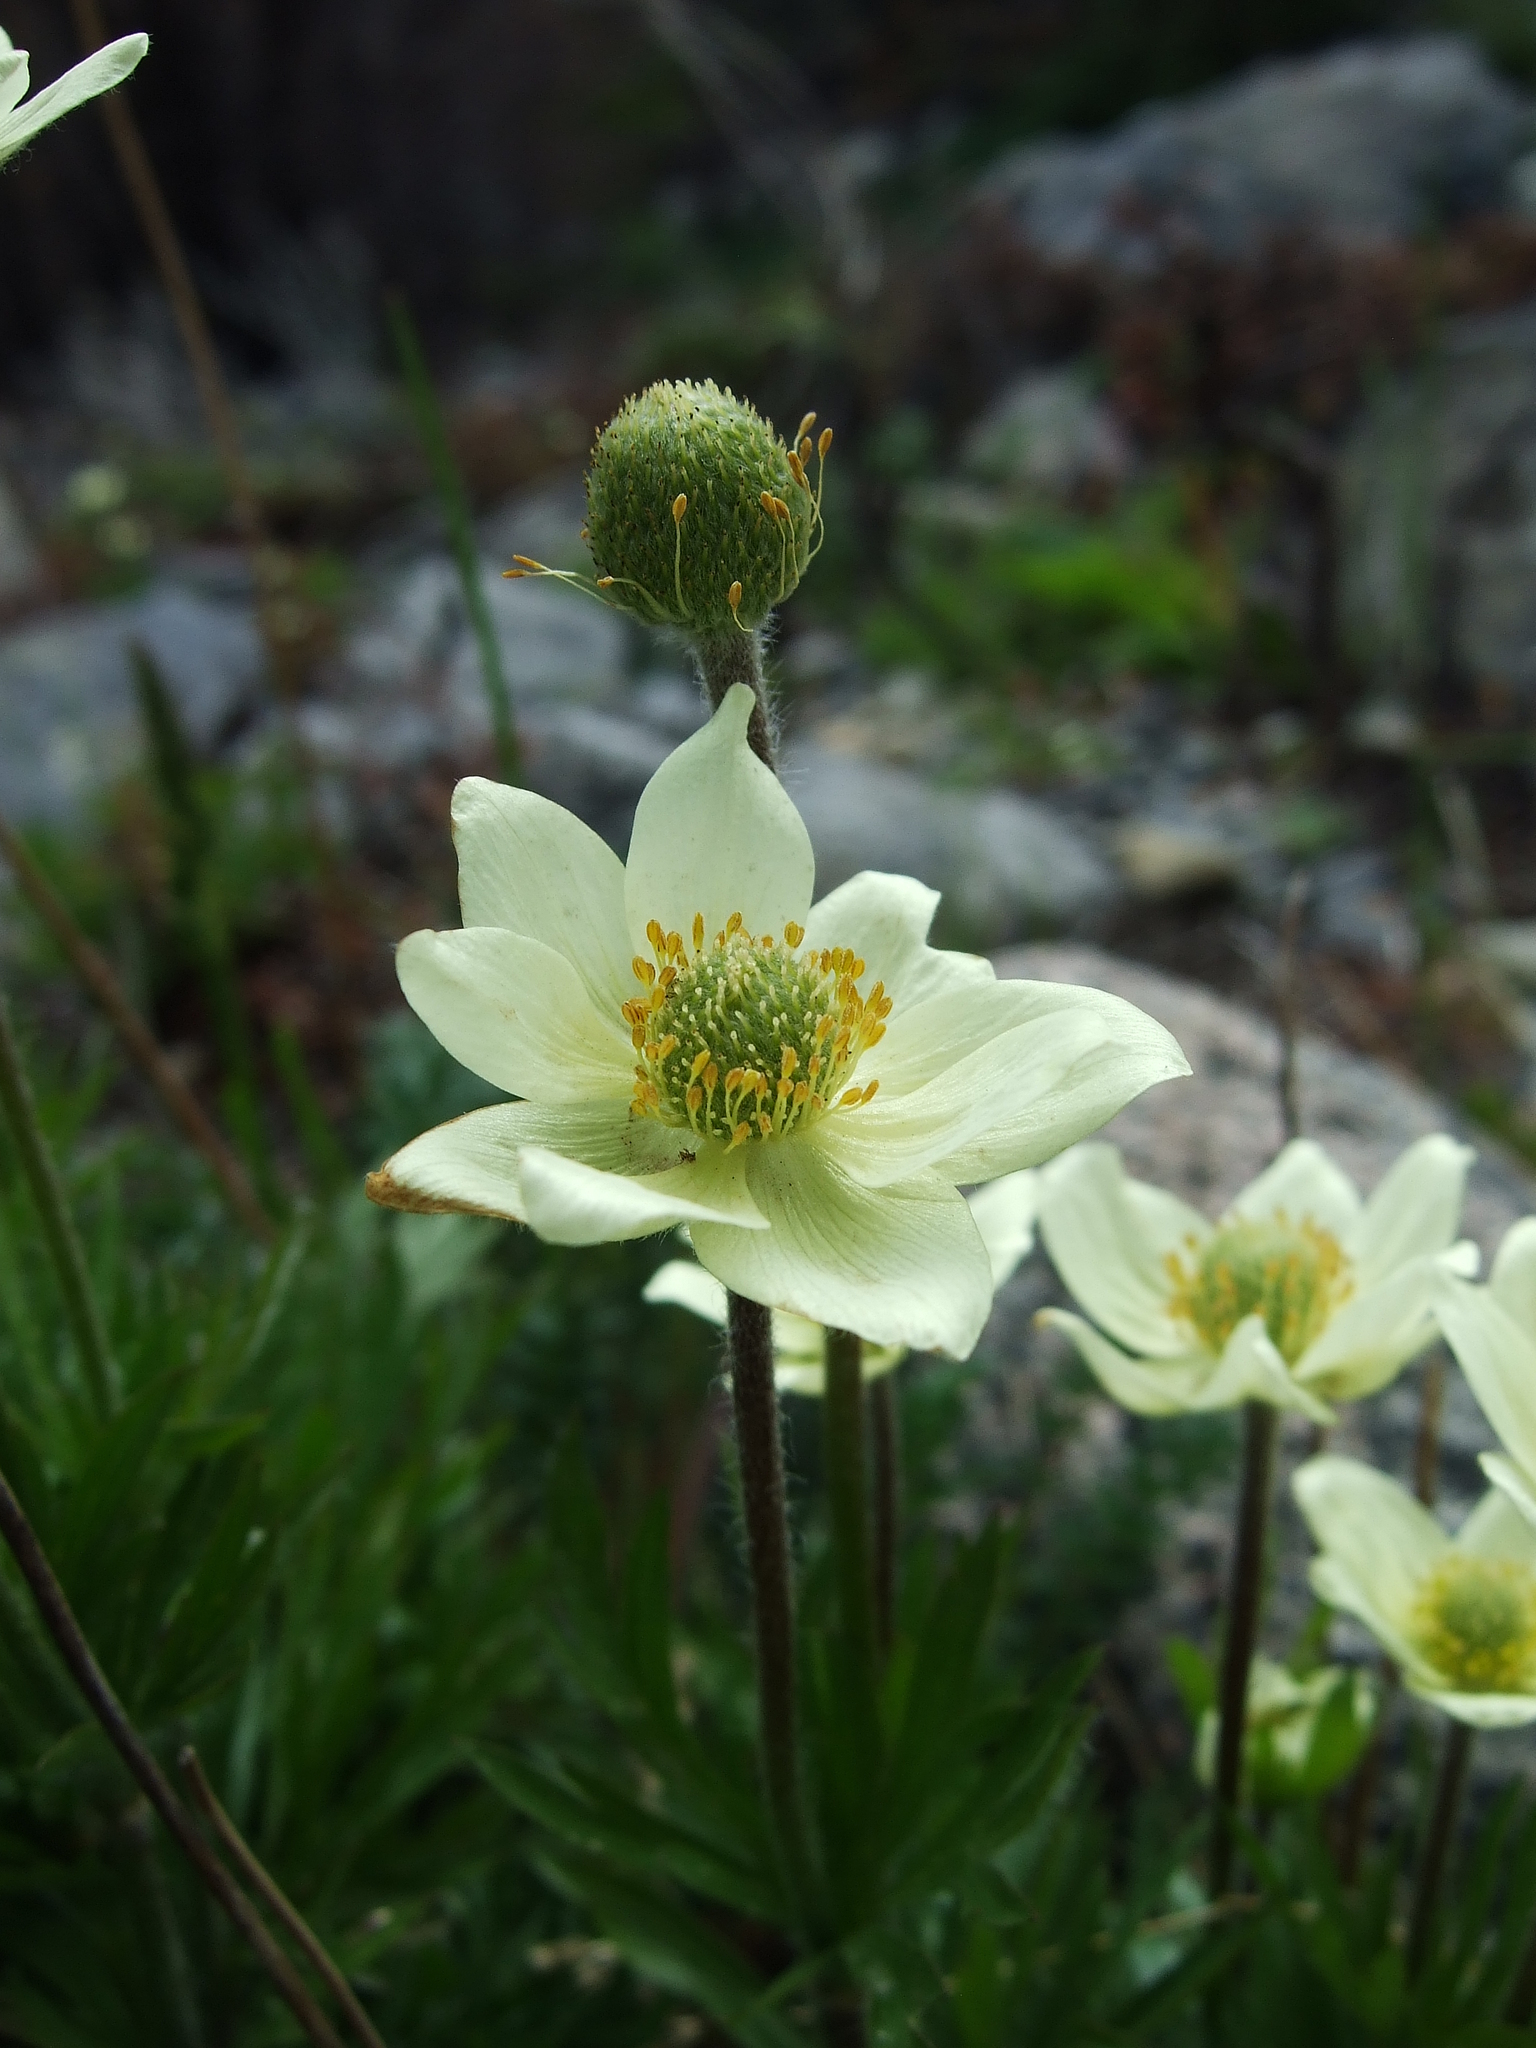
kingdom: Plantae
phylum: Tracheophyta
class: Magnoliopsida
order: Ranunculales
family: Ranunculaceae
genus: Anemone
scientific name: Anemone multifida
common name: Bird's-foot anemone
